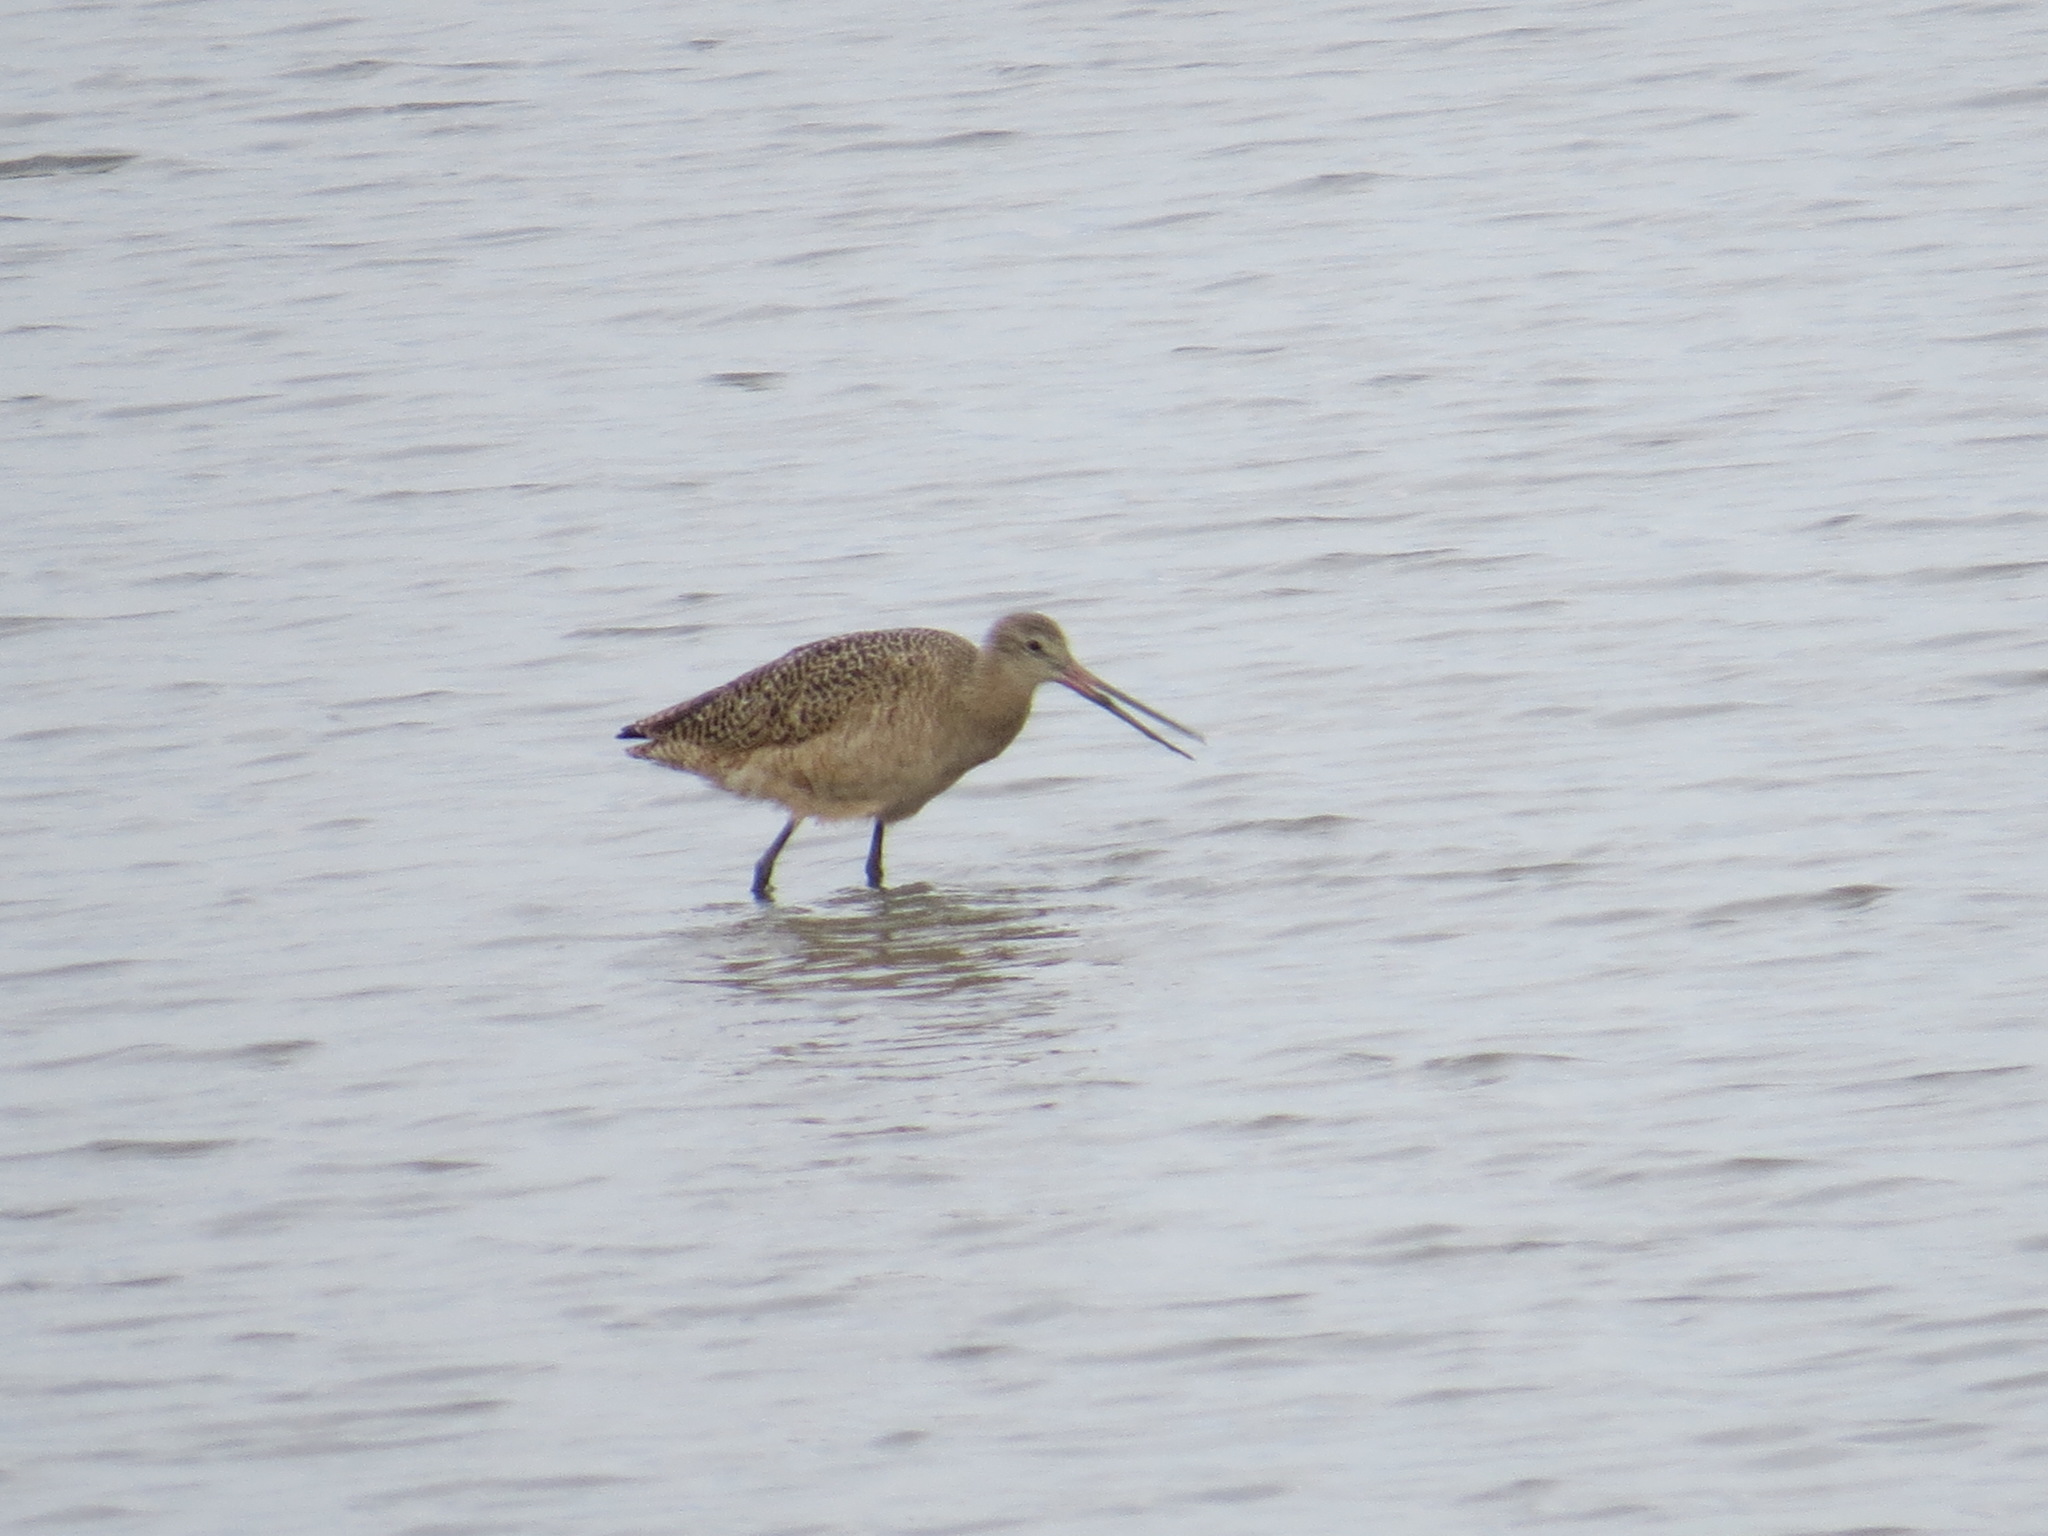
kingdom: Animalia
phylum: Chordata
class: Aves
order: Charadriiformes
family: Scolopacidae
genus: Limosa
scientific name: Limosa fedoa
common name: Marbled godwit
